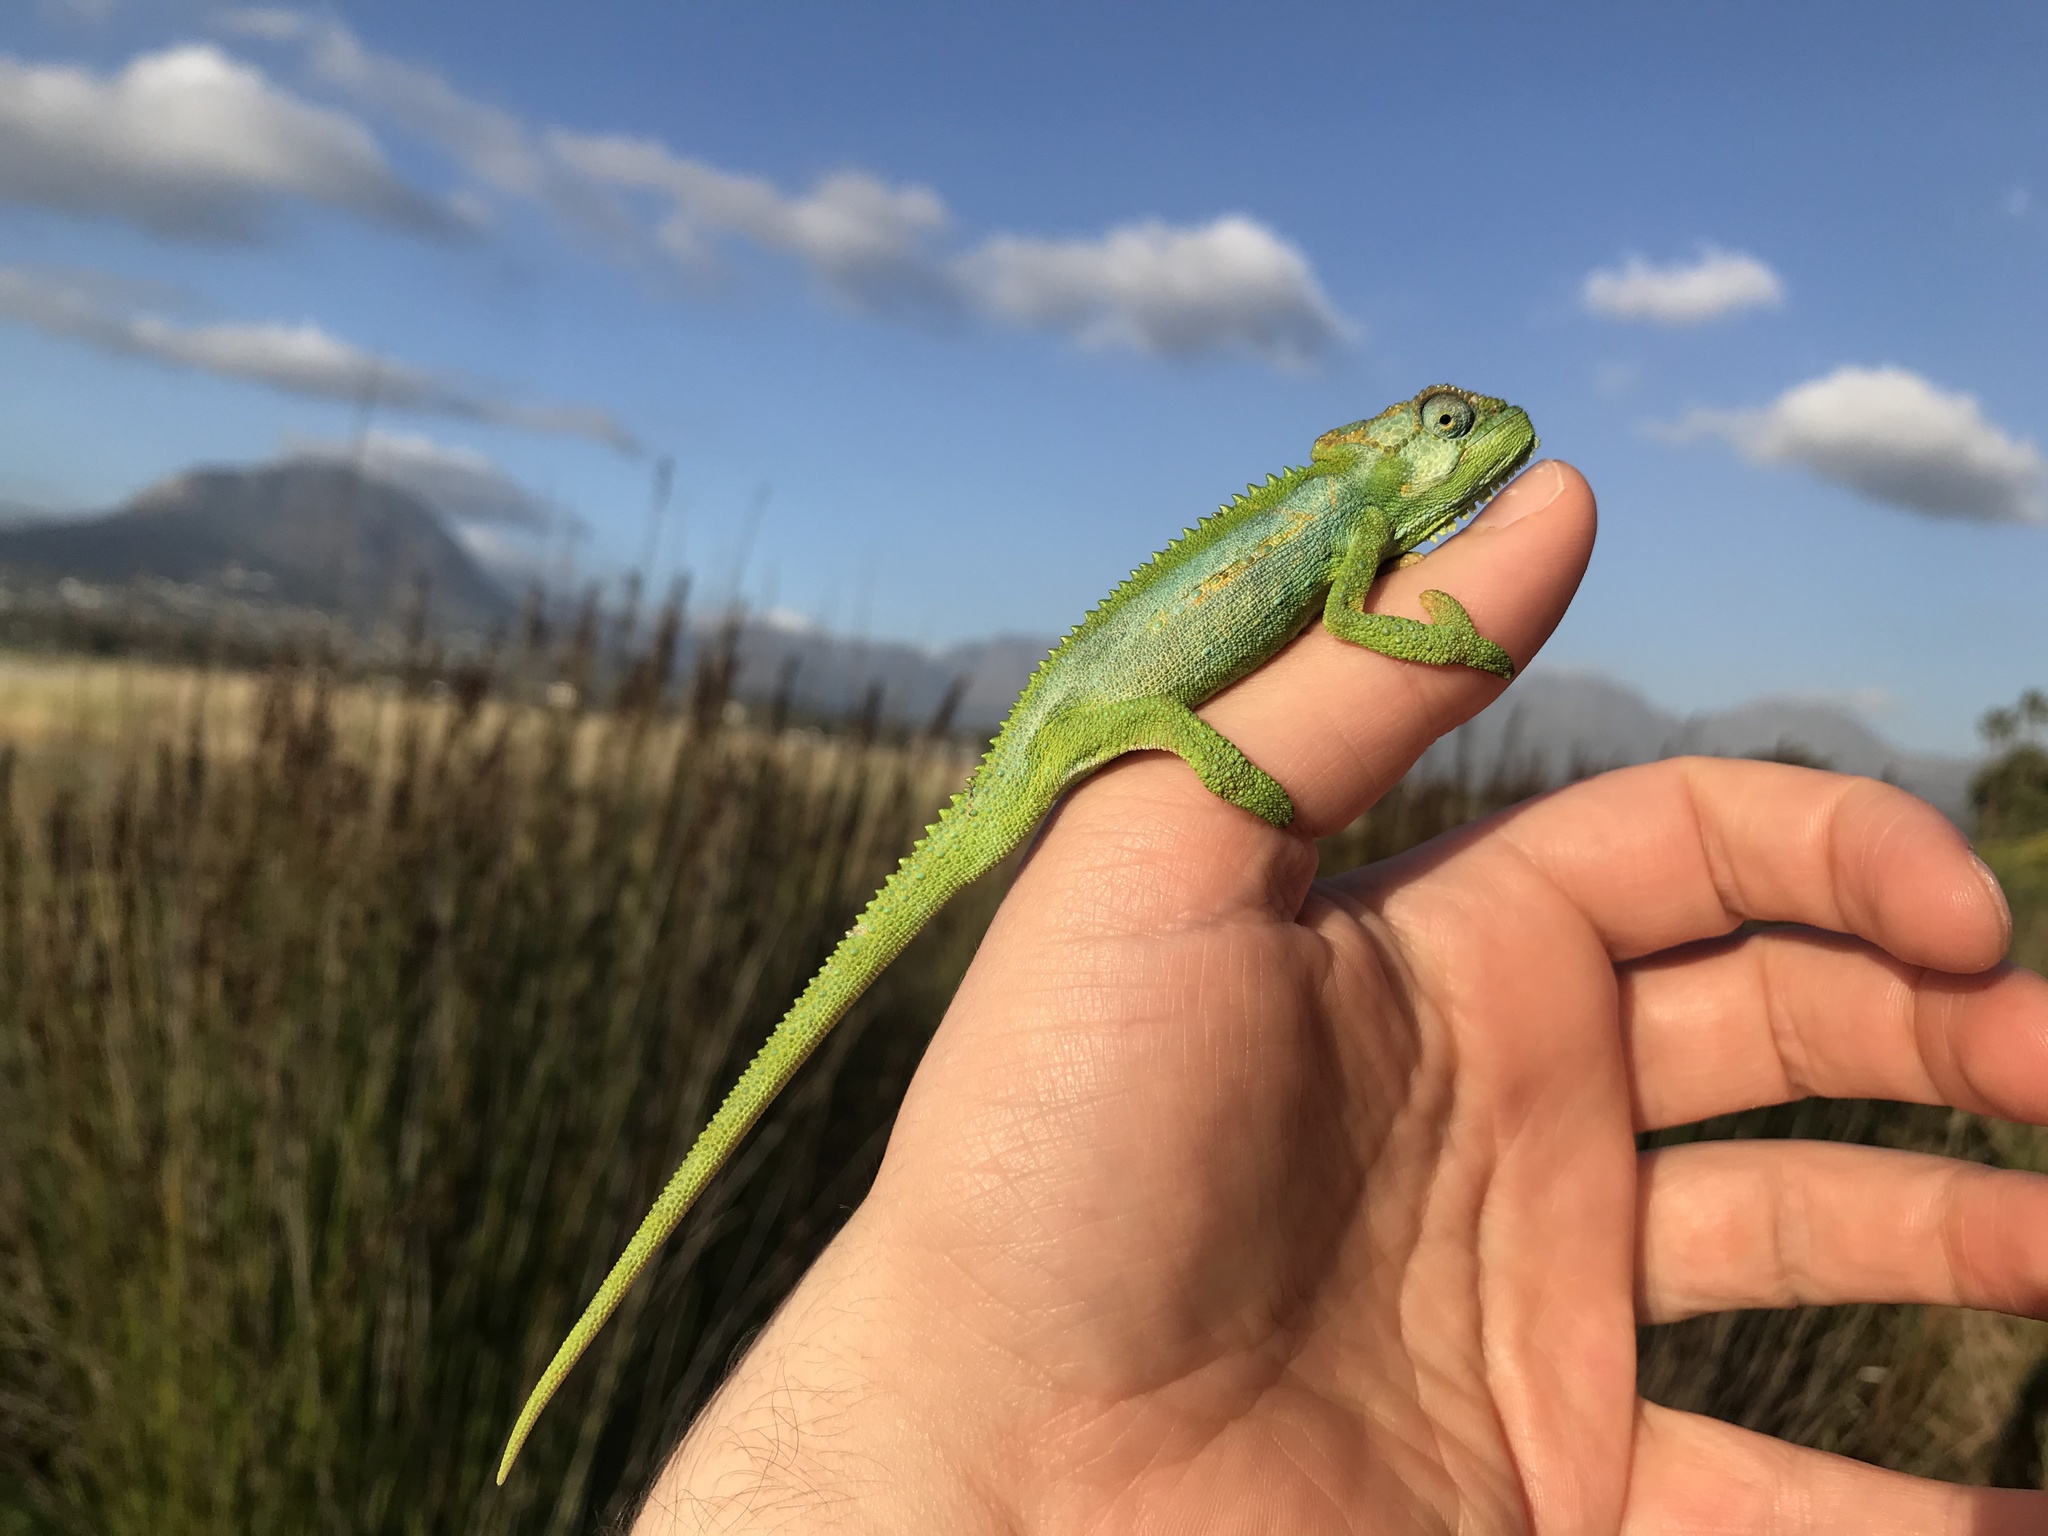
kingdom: Animalia
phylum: Chordata
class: Squamata
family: Chamaeleonidae
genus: Bradypodion
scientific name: Bradypodion pumilum
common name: Cape dwarf chameleon
